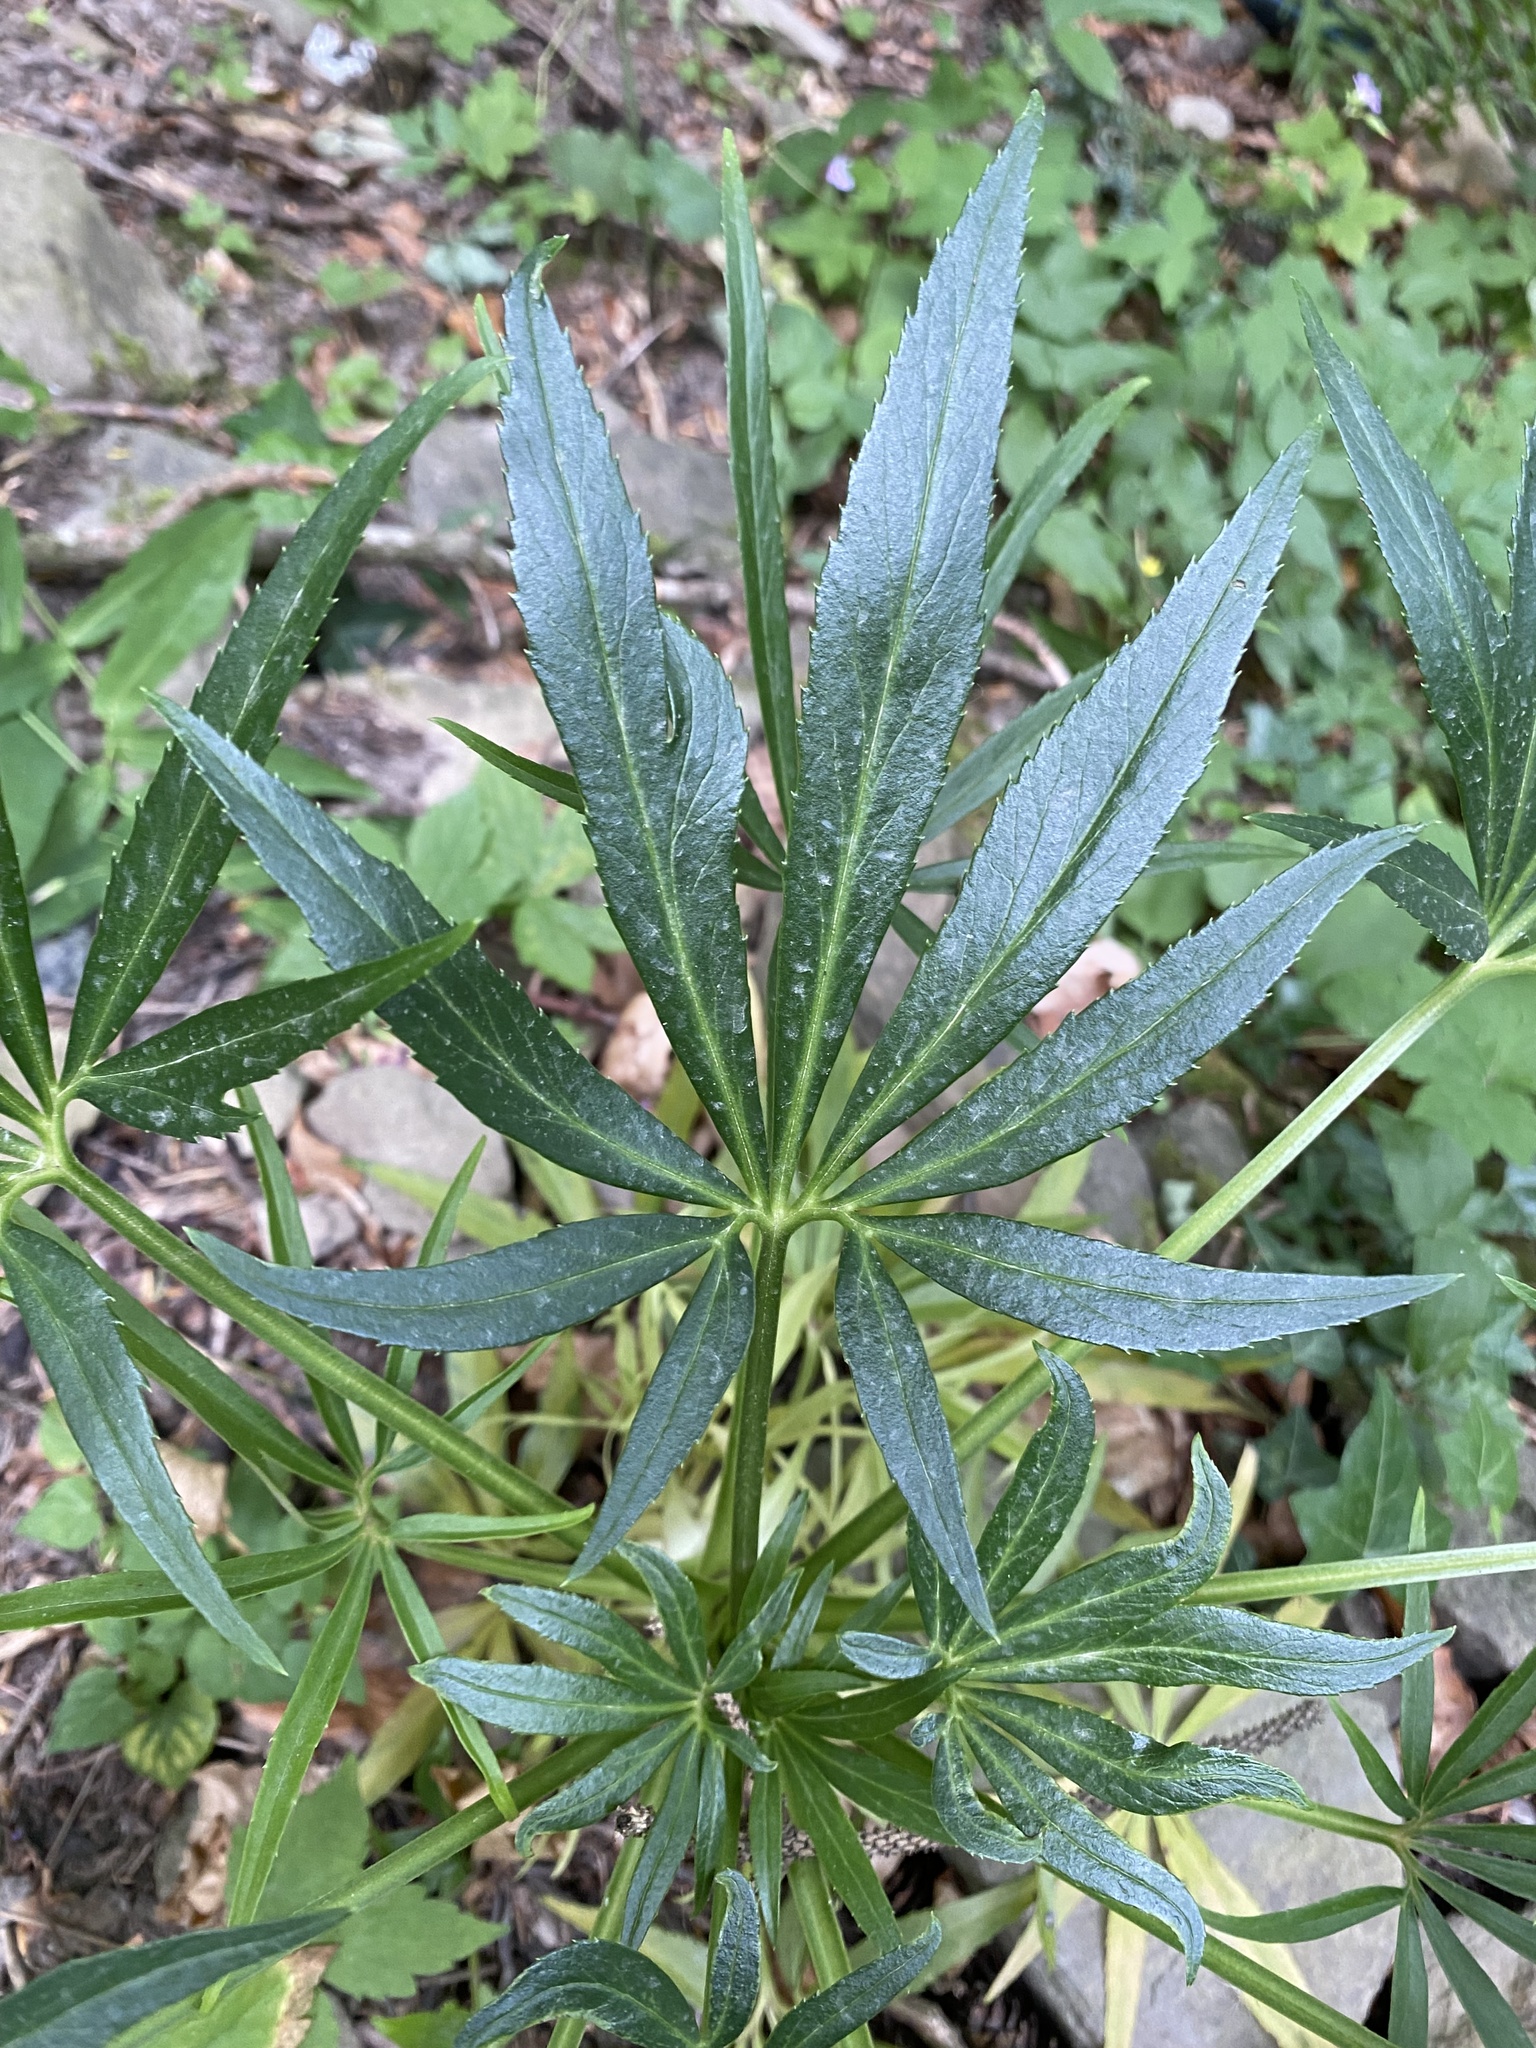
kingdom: Plantae
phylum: Tracheophyta
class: Magnoliopsida
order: Ranunculales
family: Ranunculaceae
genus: Helleborus
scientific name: Helleborus foetidus
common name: Stinking hellebore
